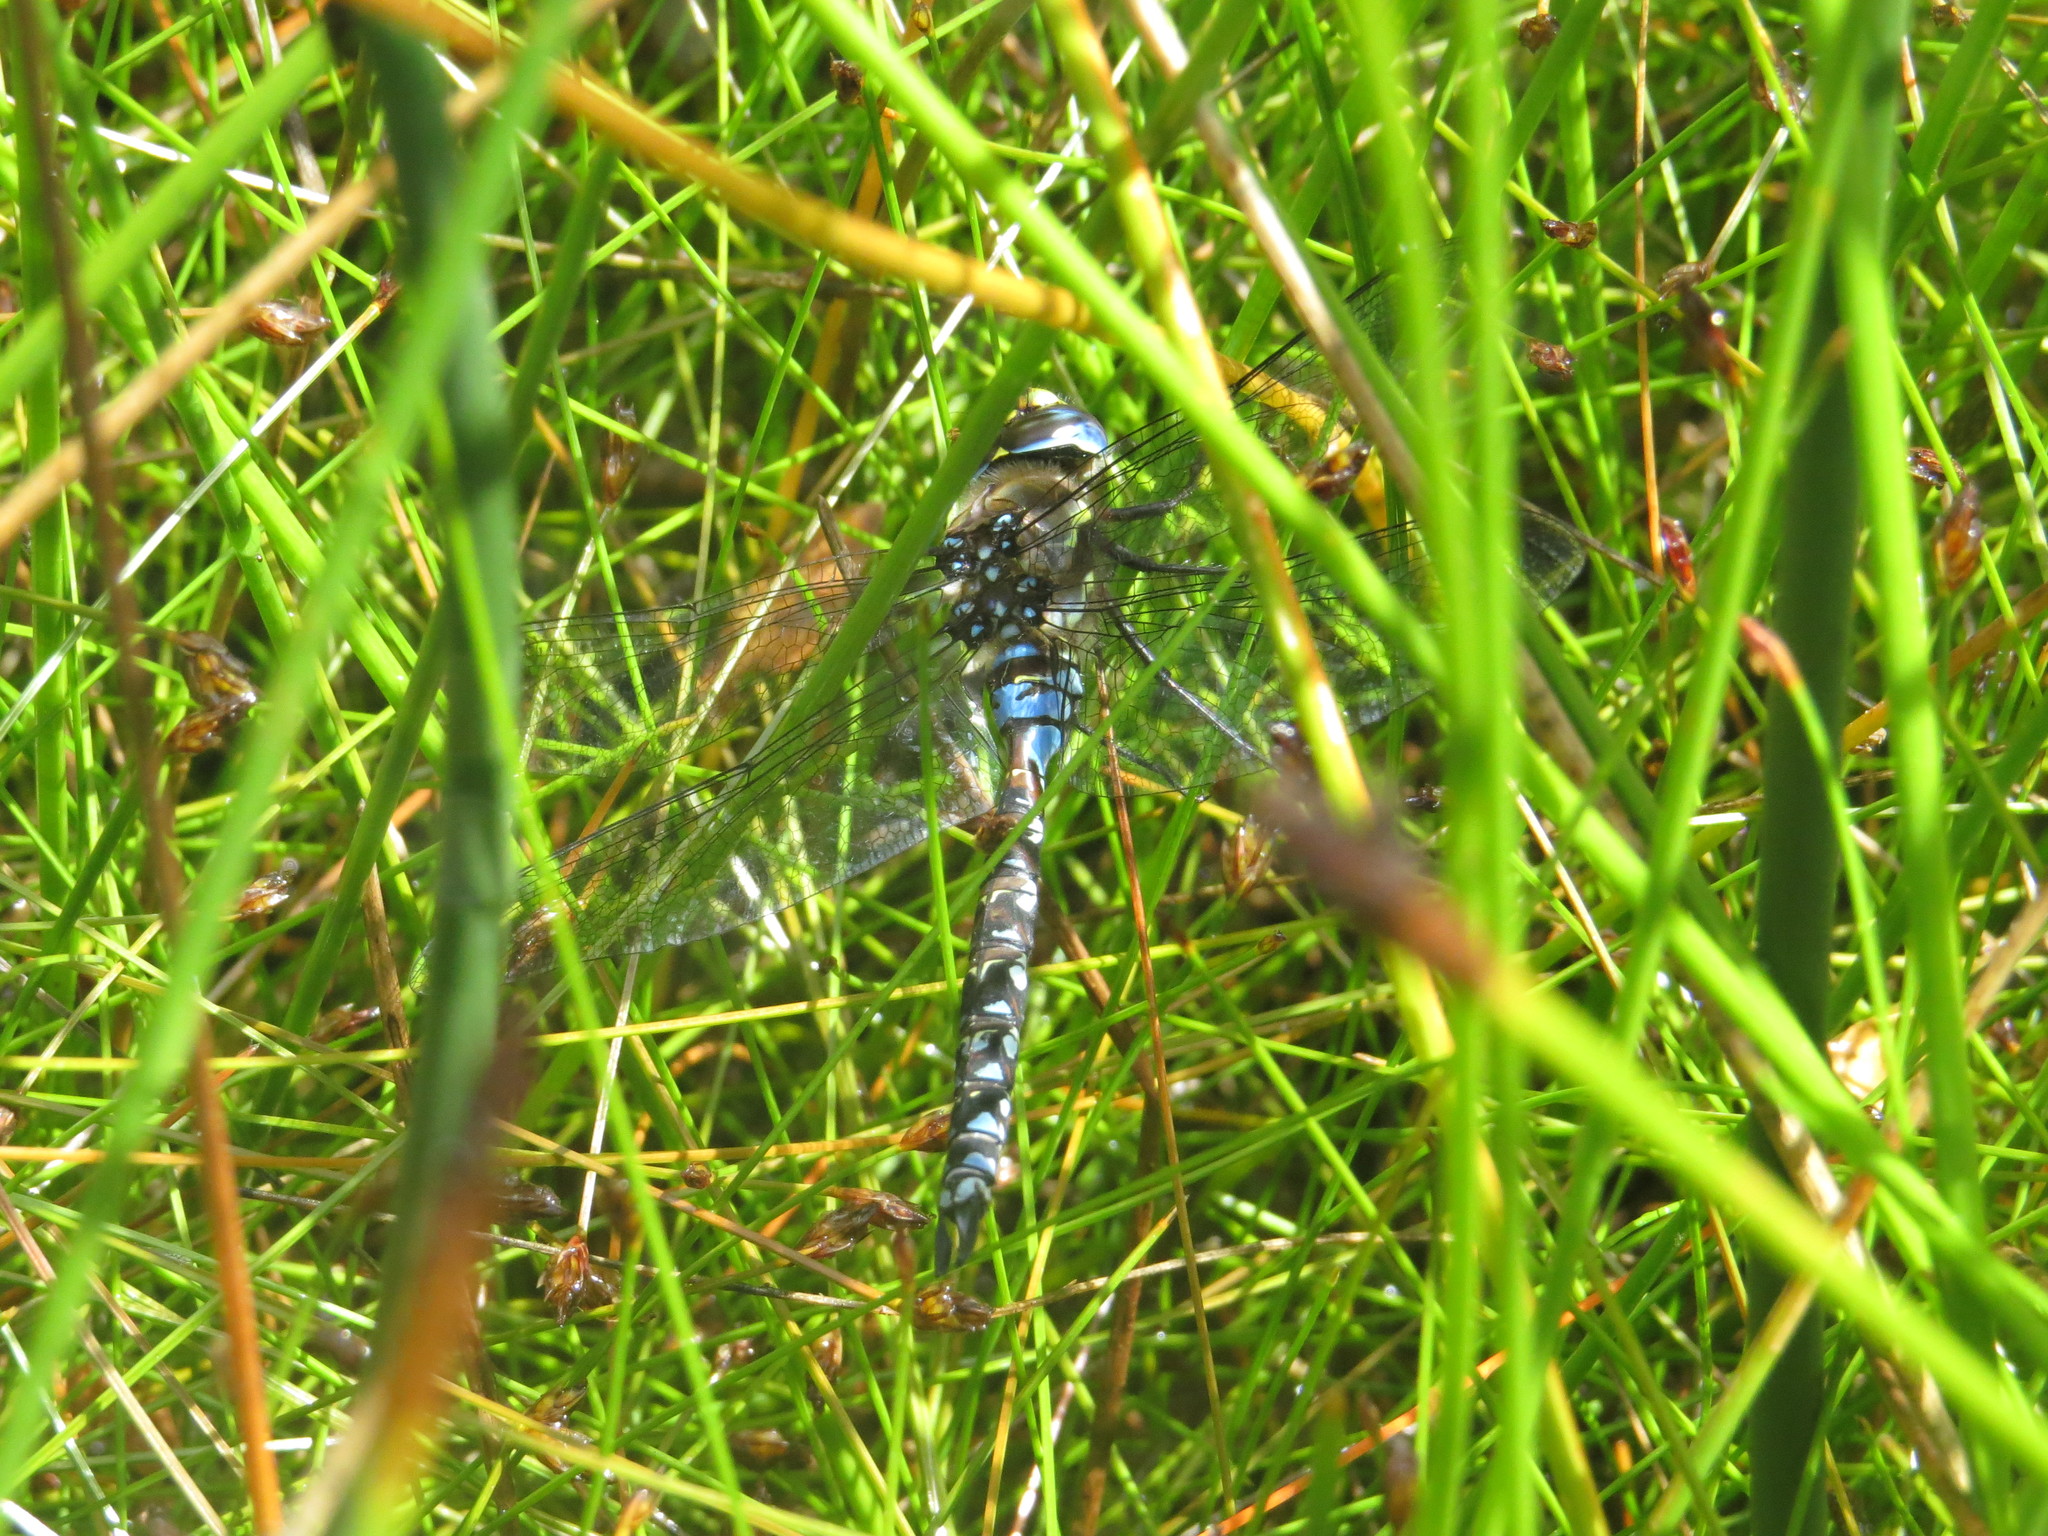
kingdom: Animalia
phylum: Arthropoda
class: Insecta
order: Odonata
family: Aeshnidae
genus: Rhionaeschna
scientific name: Rhionaeschna variegata
